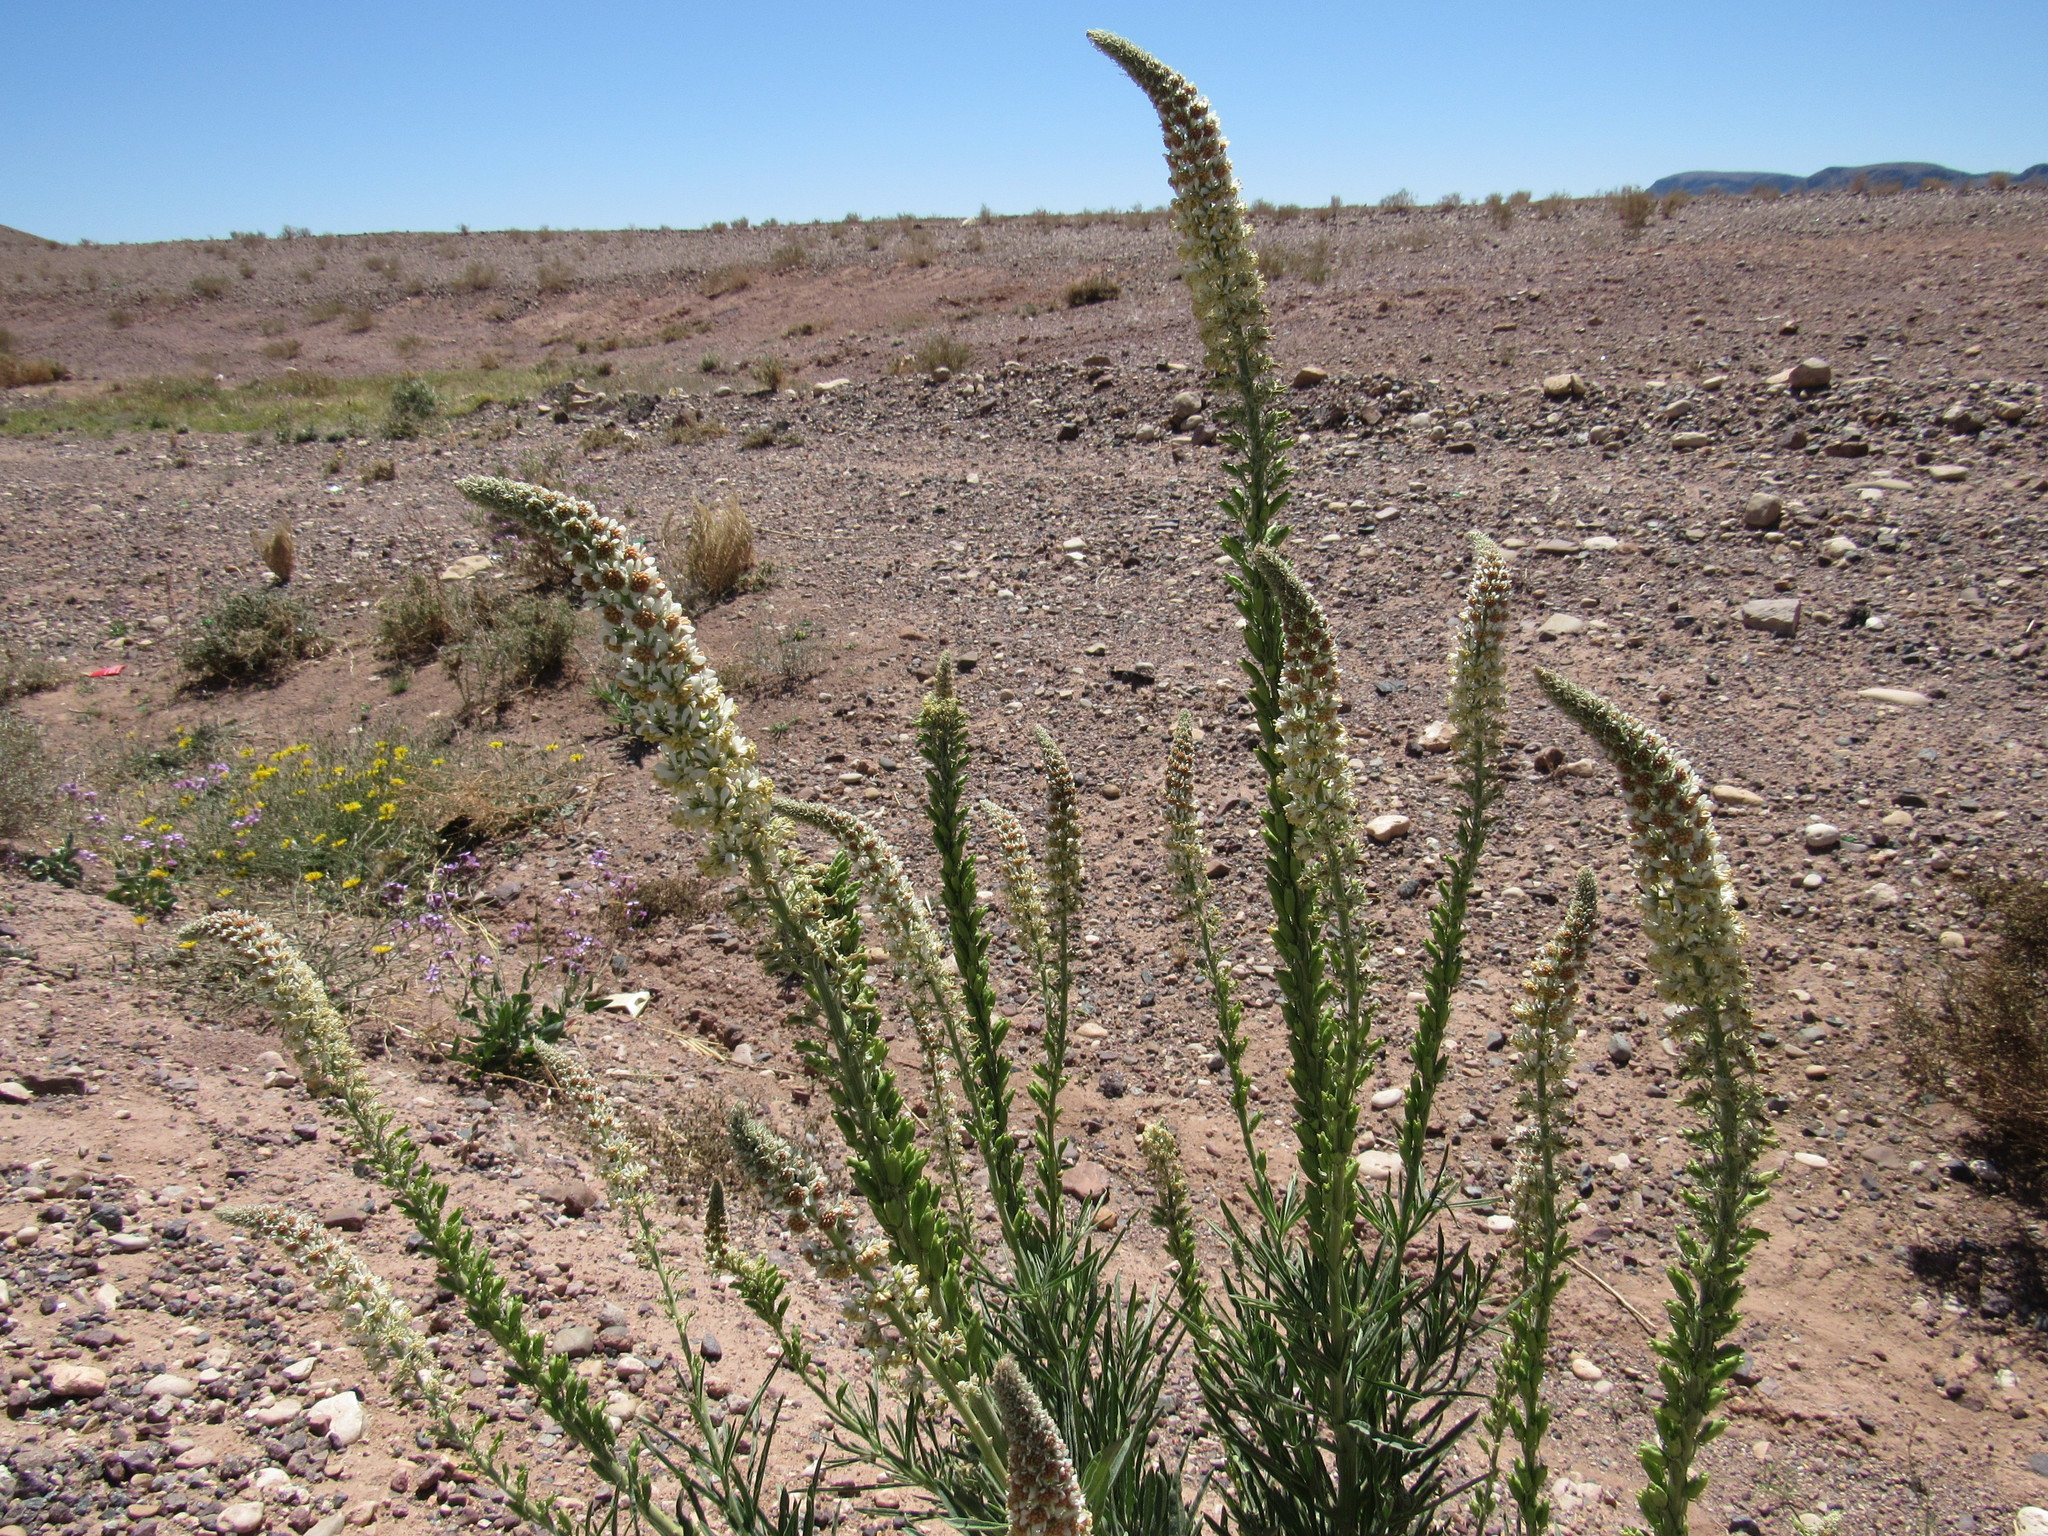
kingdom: Plantae
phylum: Tracheophyta
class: Magnoliopsida
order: Brassicales
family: Resedaceae
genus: Reseda
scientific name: Reseda villosa
